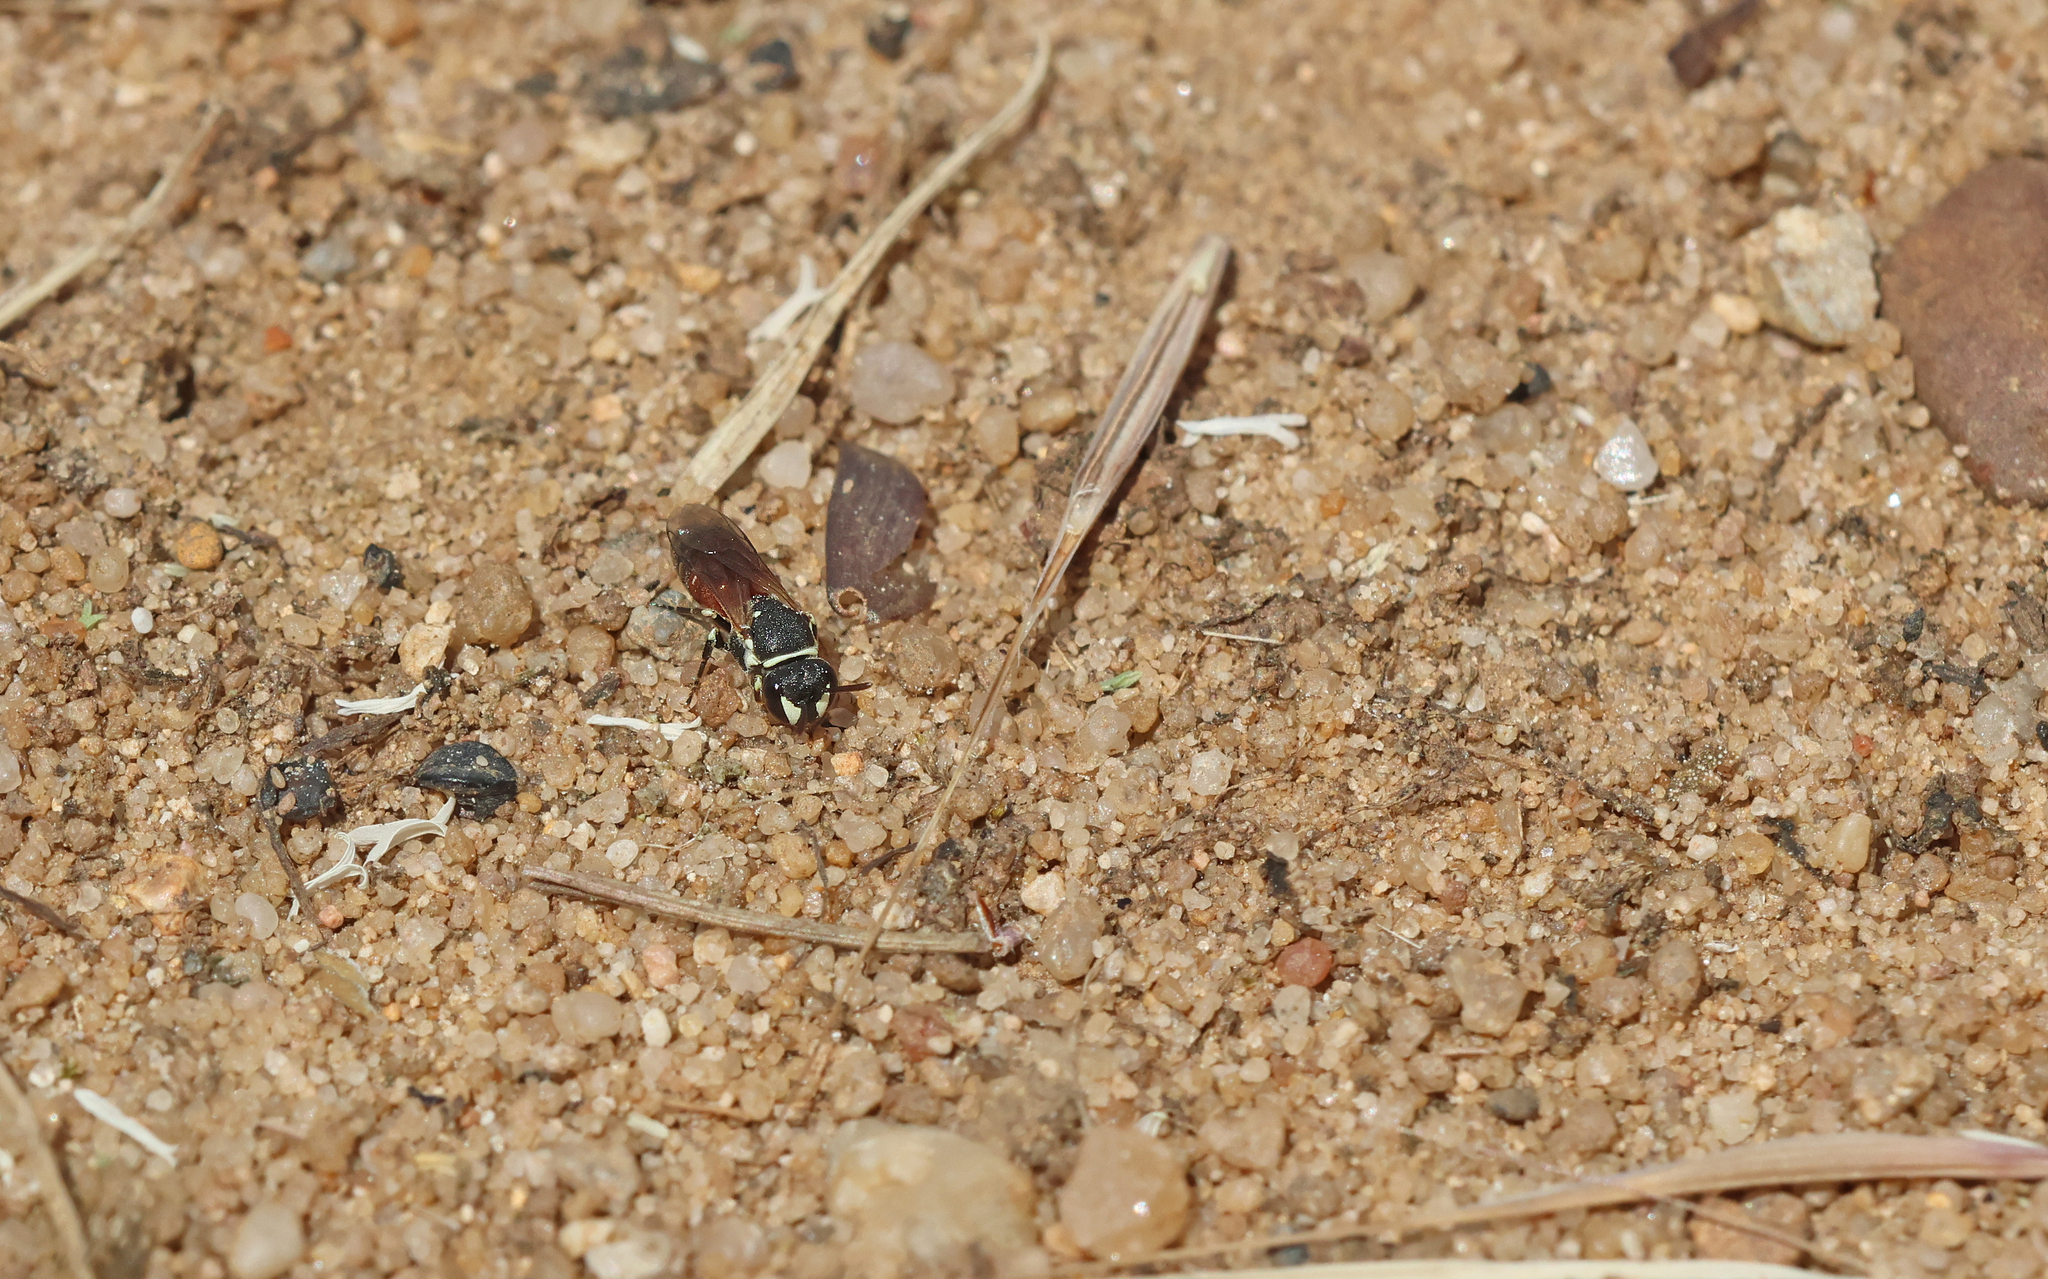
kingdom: Animalia
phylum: Arthropoda
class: Insecta
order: Hymenoptera
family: Colletidae
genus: Hylaeus
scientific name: Hylaeus variegatus
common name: Masked bee
